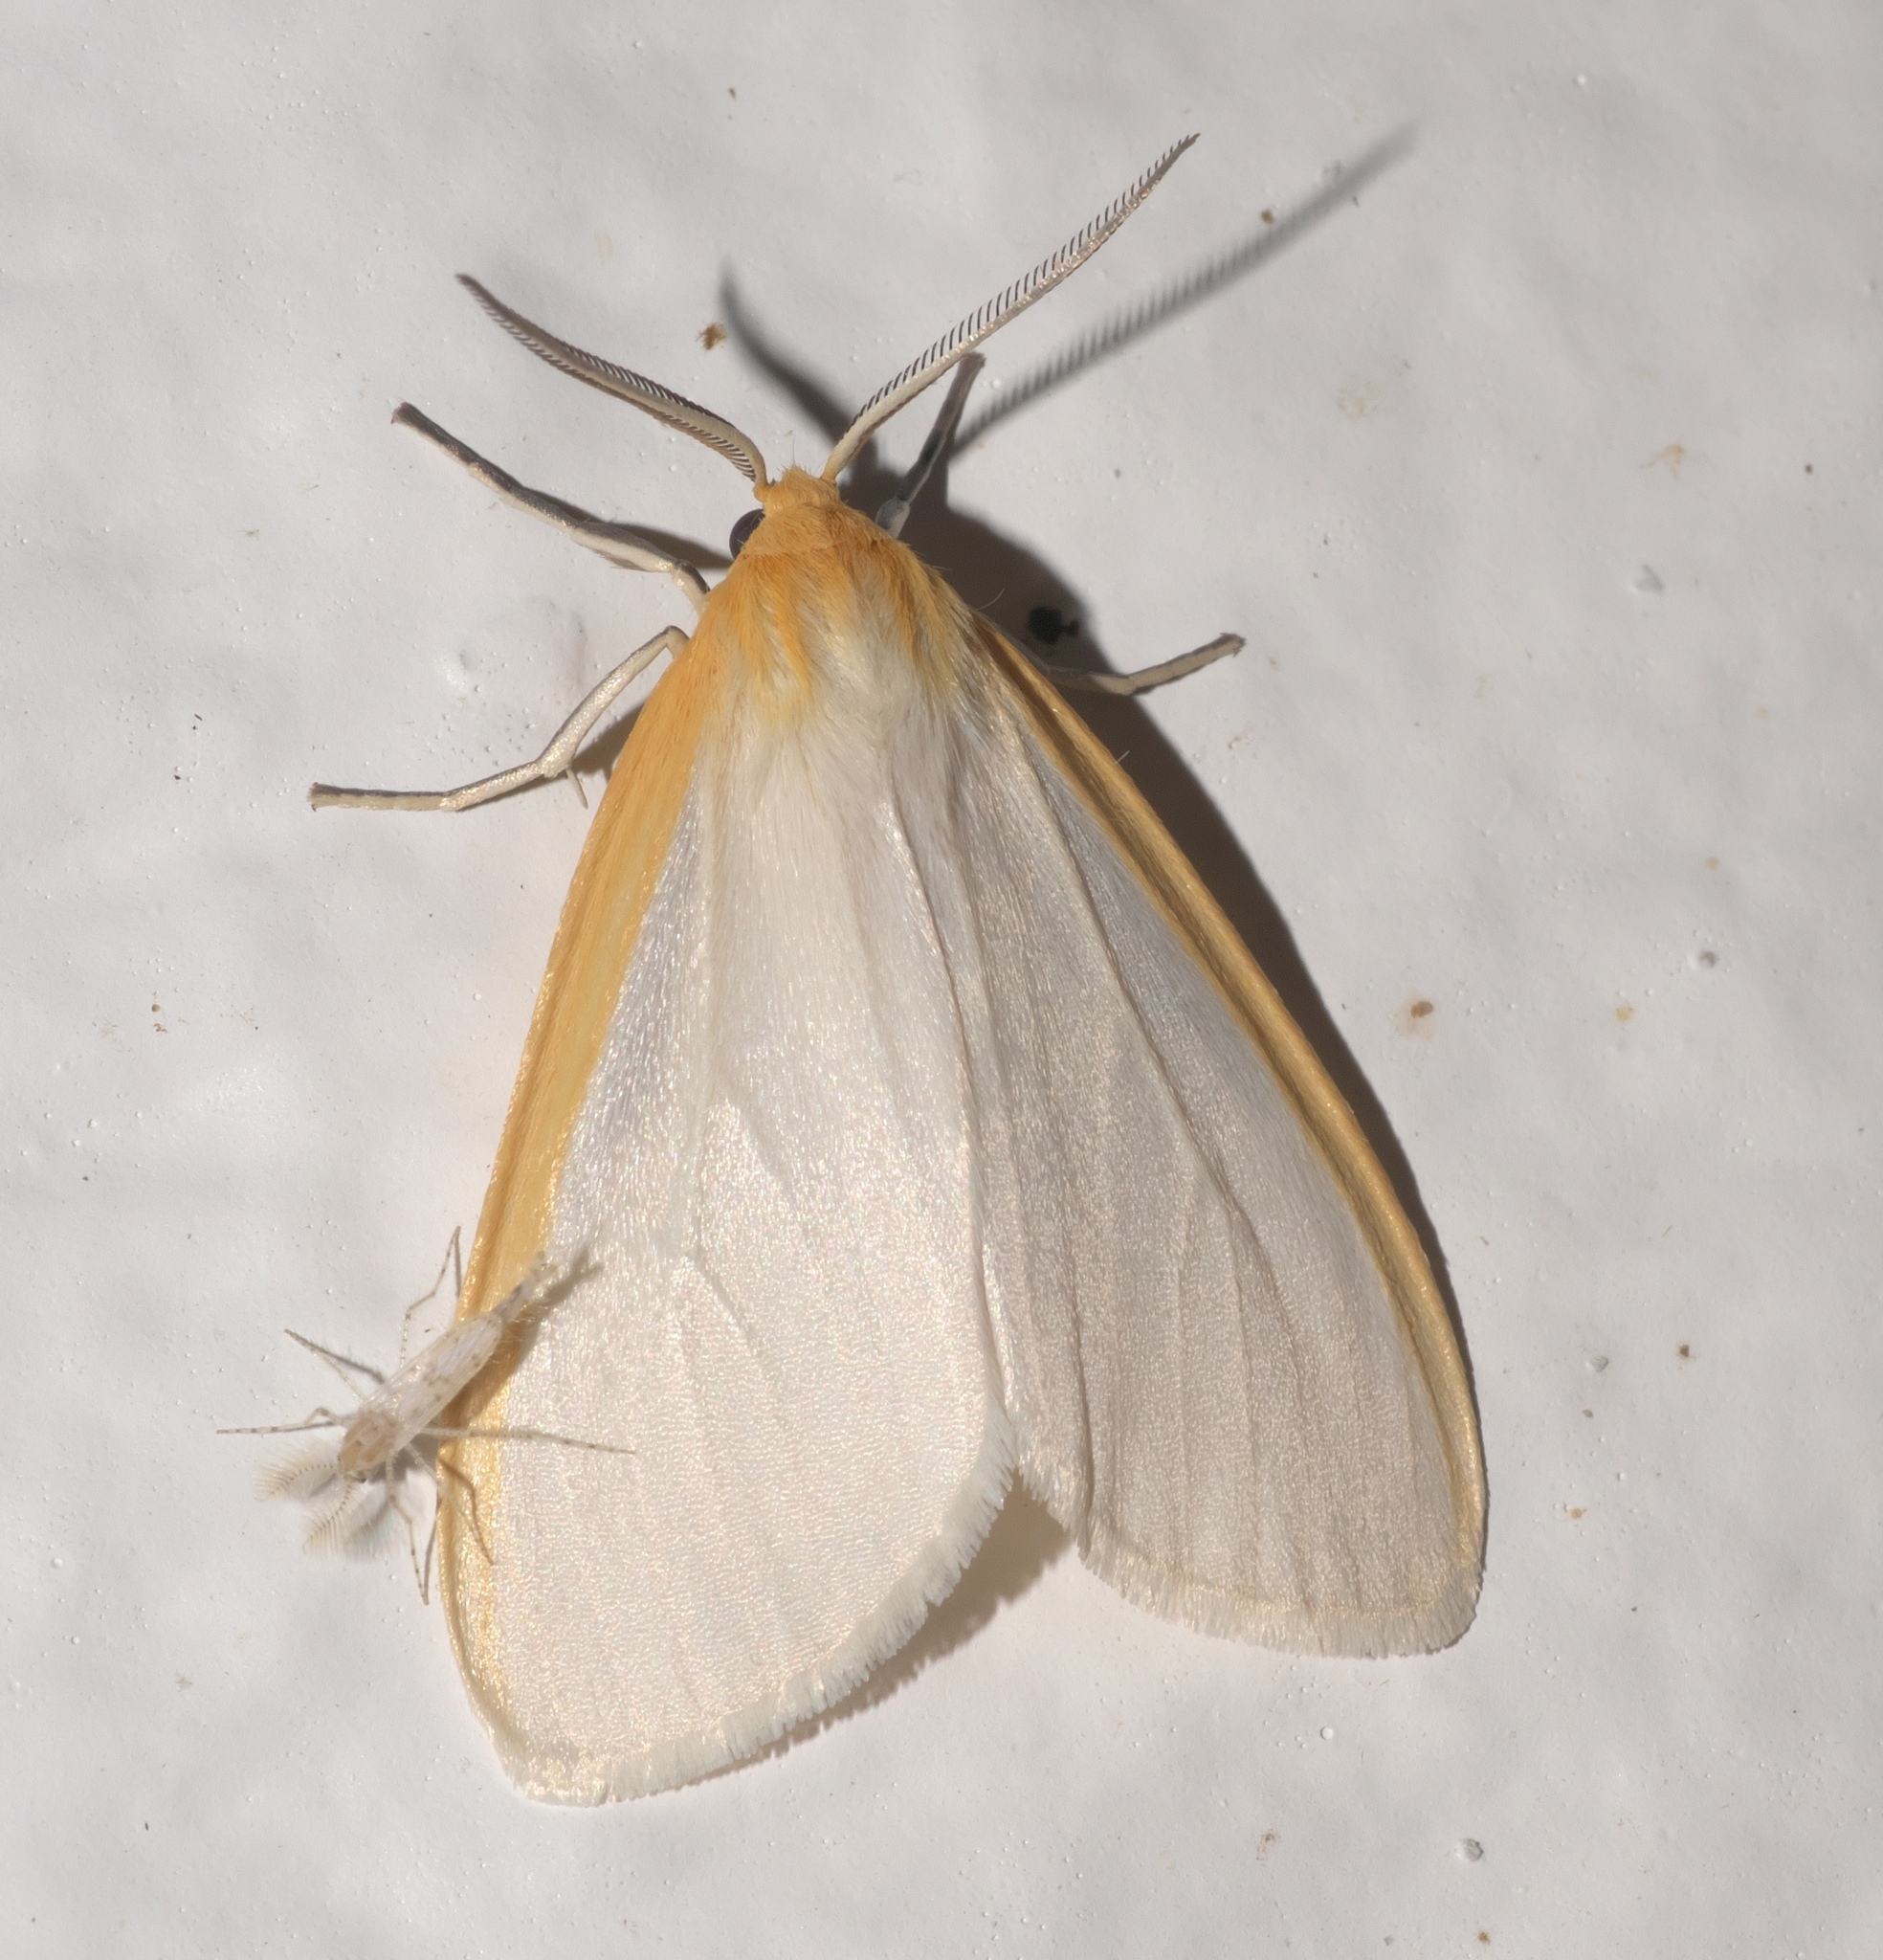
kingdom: Animalia
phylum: Arthropoda
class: Insecta
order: Lepidoptera
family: Erebidae
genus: Cycnia
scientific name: Cycnia tenera
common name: Delicate cycnia moth
